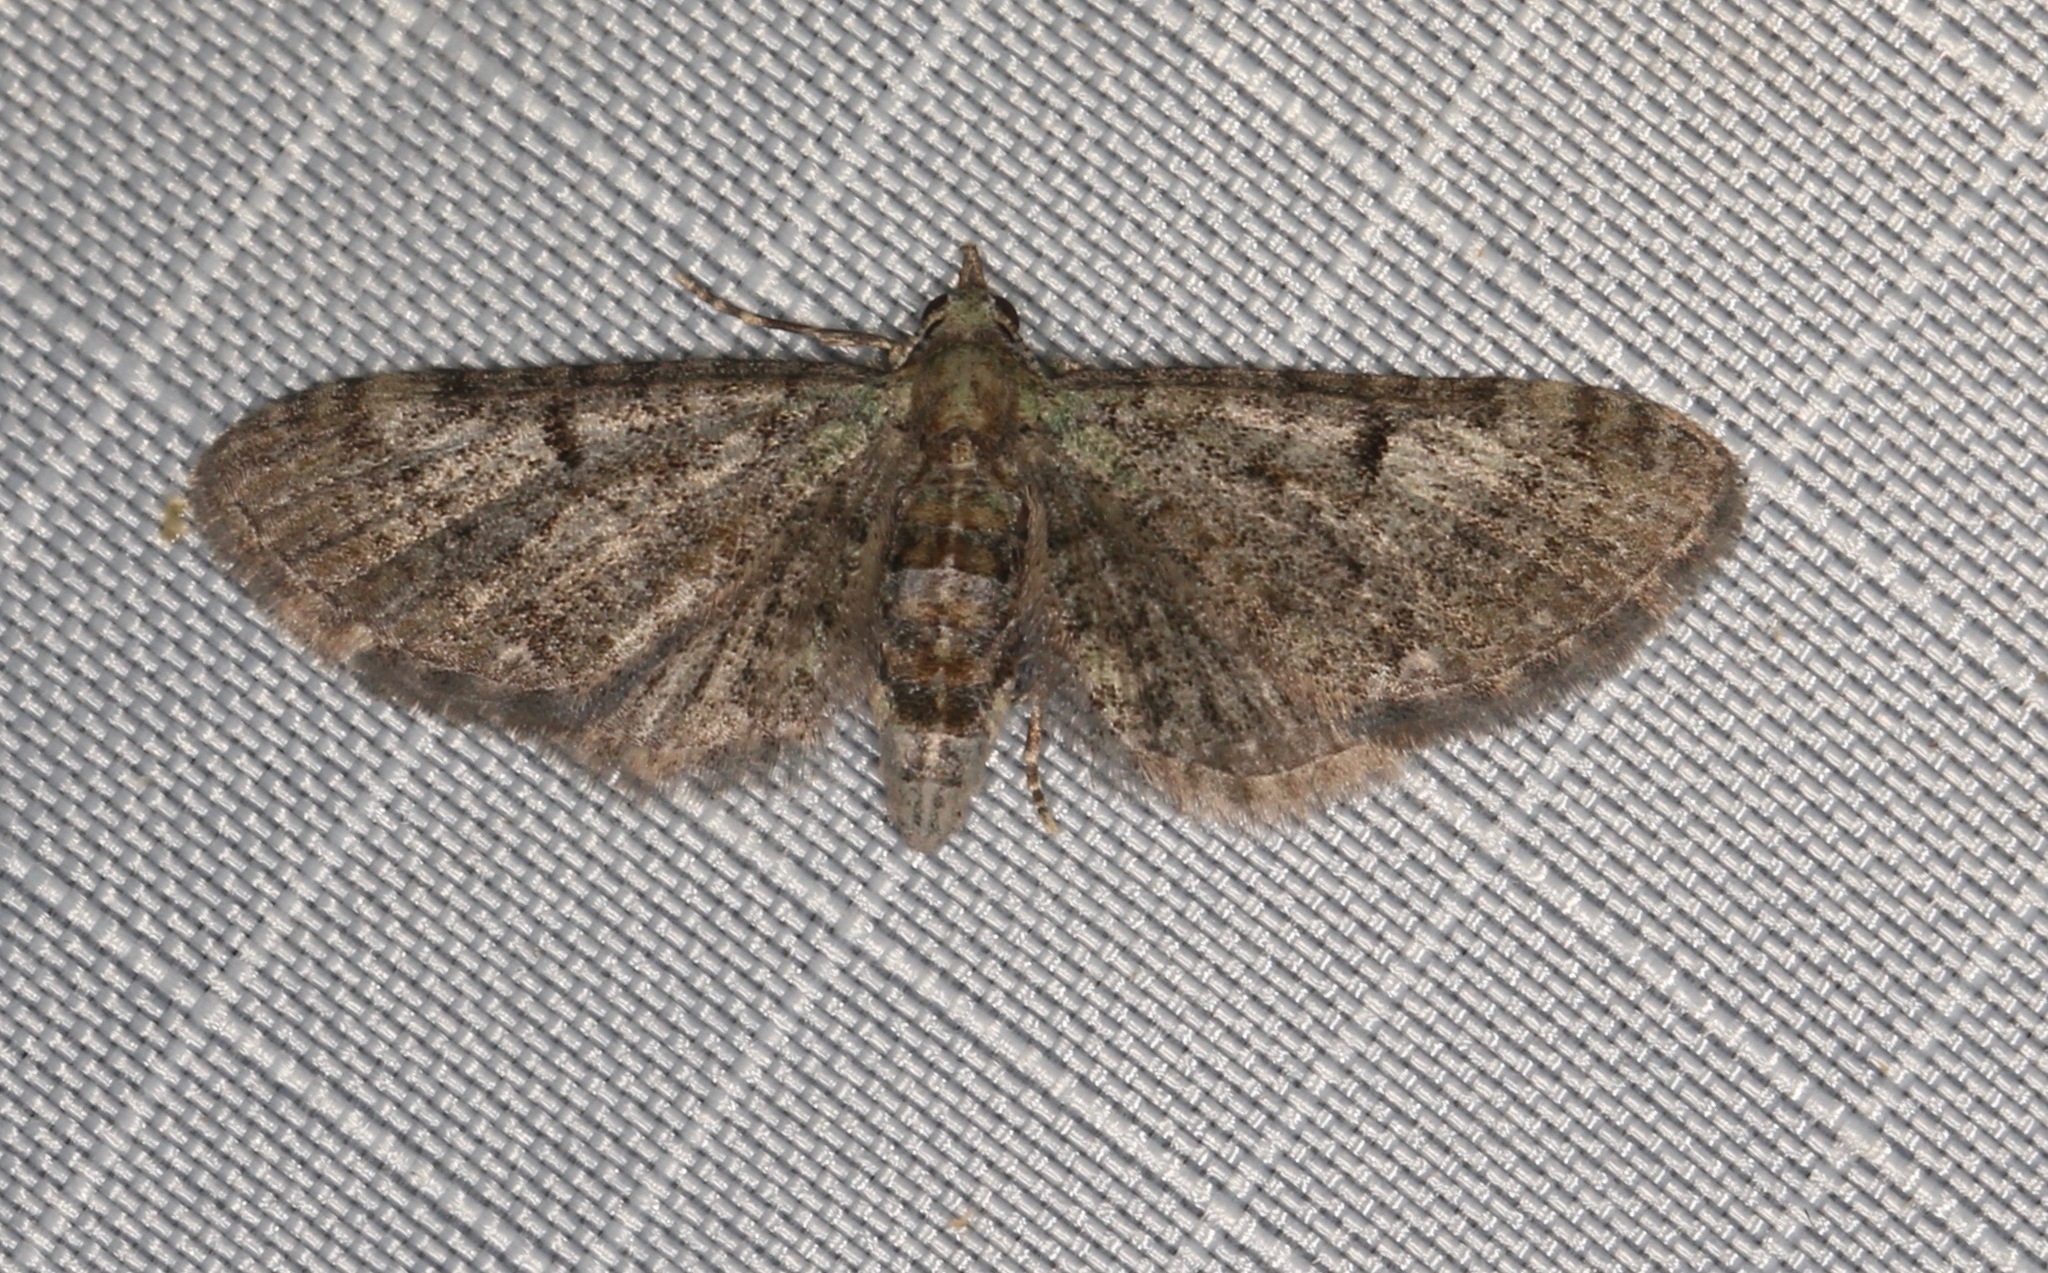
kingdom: Animalia
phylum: Arthropoda
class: Insecta
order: Lepidoptera
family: Geometridae
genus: Eupithecia
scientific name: Eupithecia miserulata
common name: Common eupithecia
